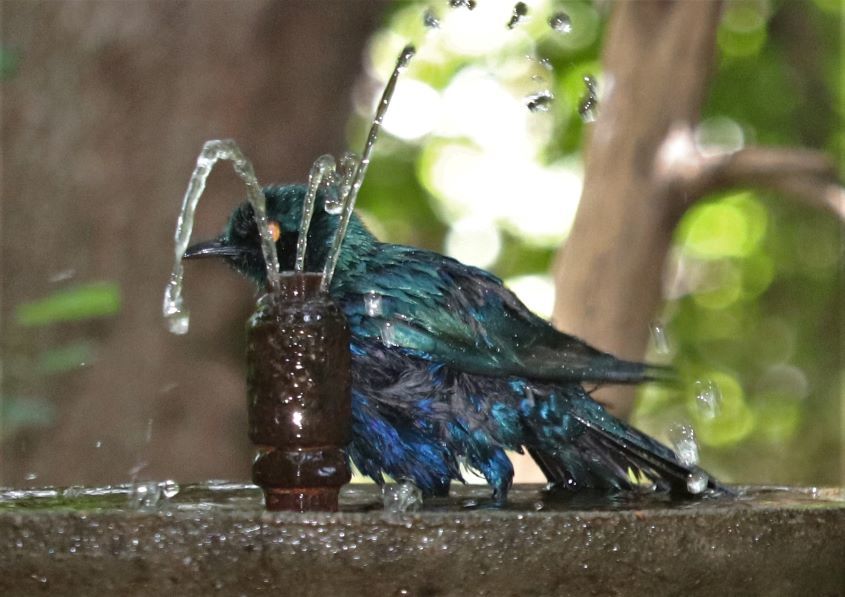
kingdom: Animalia
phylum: Chordata
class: Aves
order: Passeriformes
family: Sturnidae
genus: Lamprotornis
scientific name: Lamprotornis nitens
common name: Cape starling
